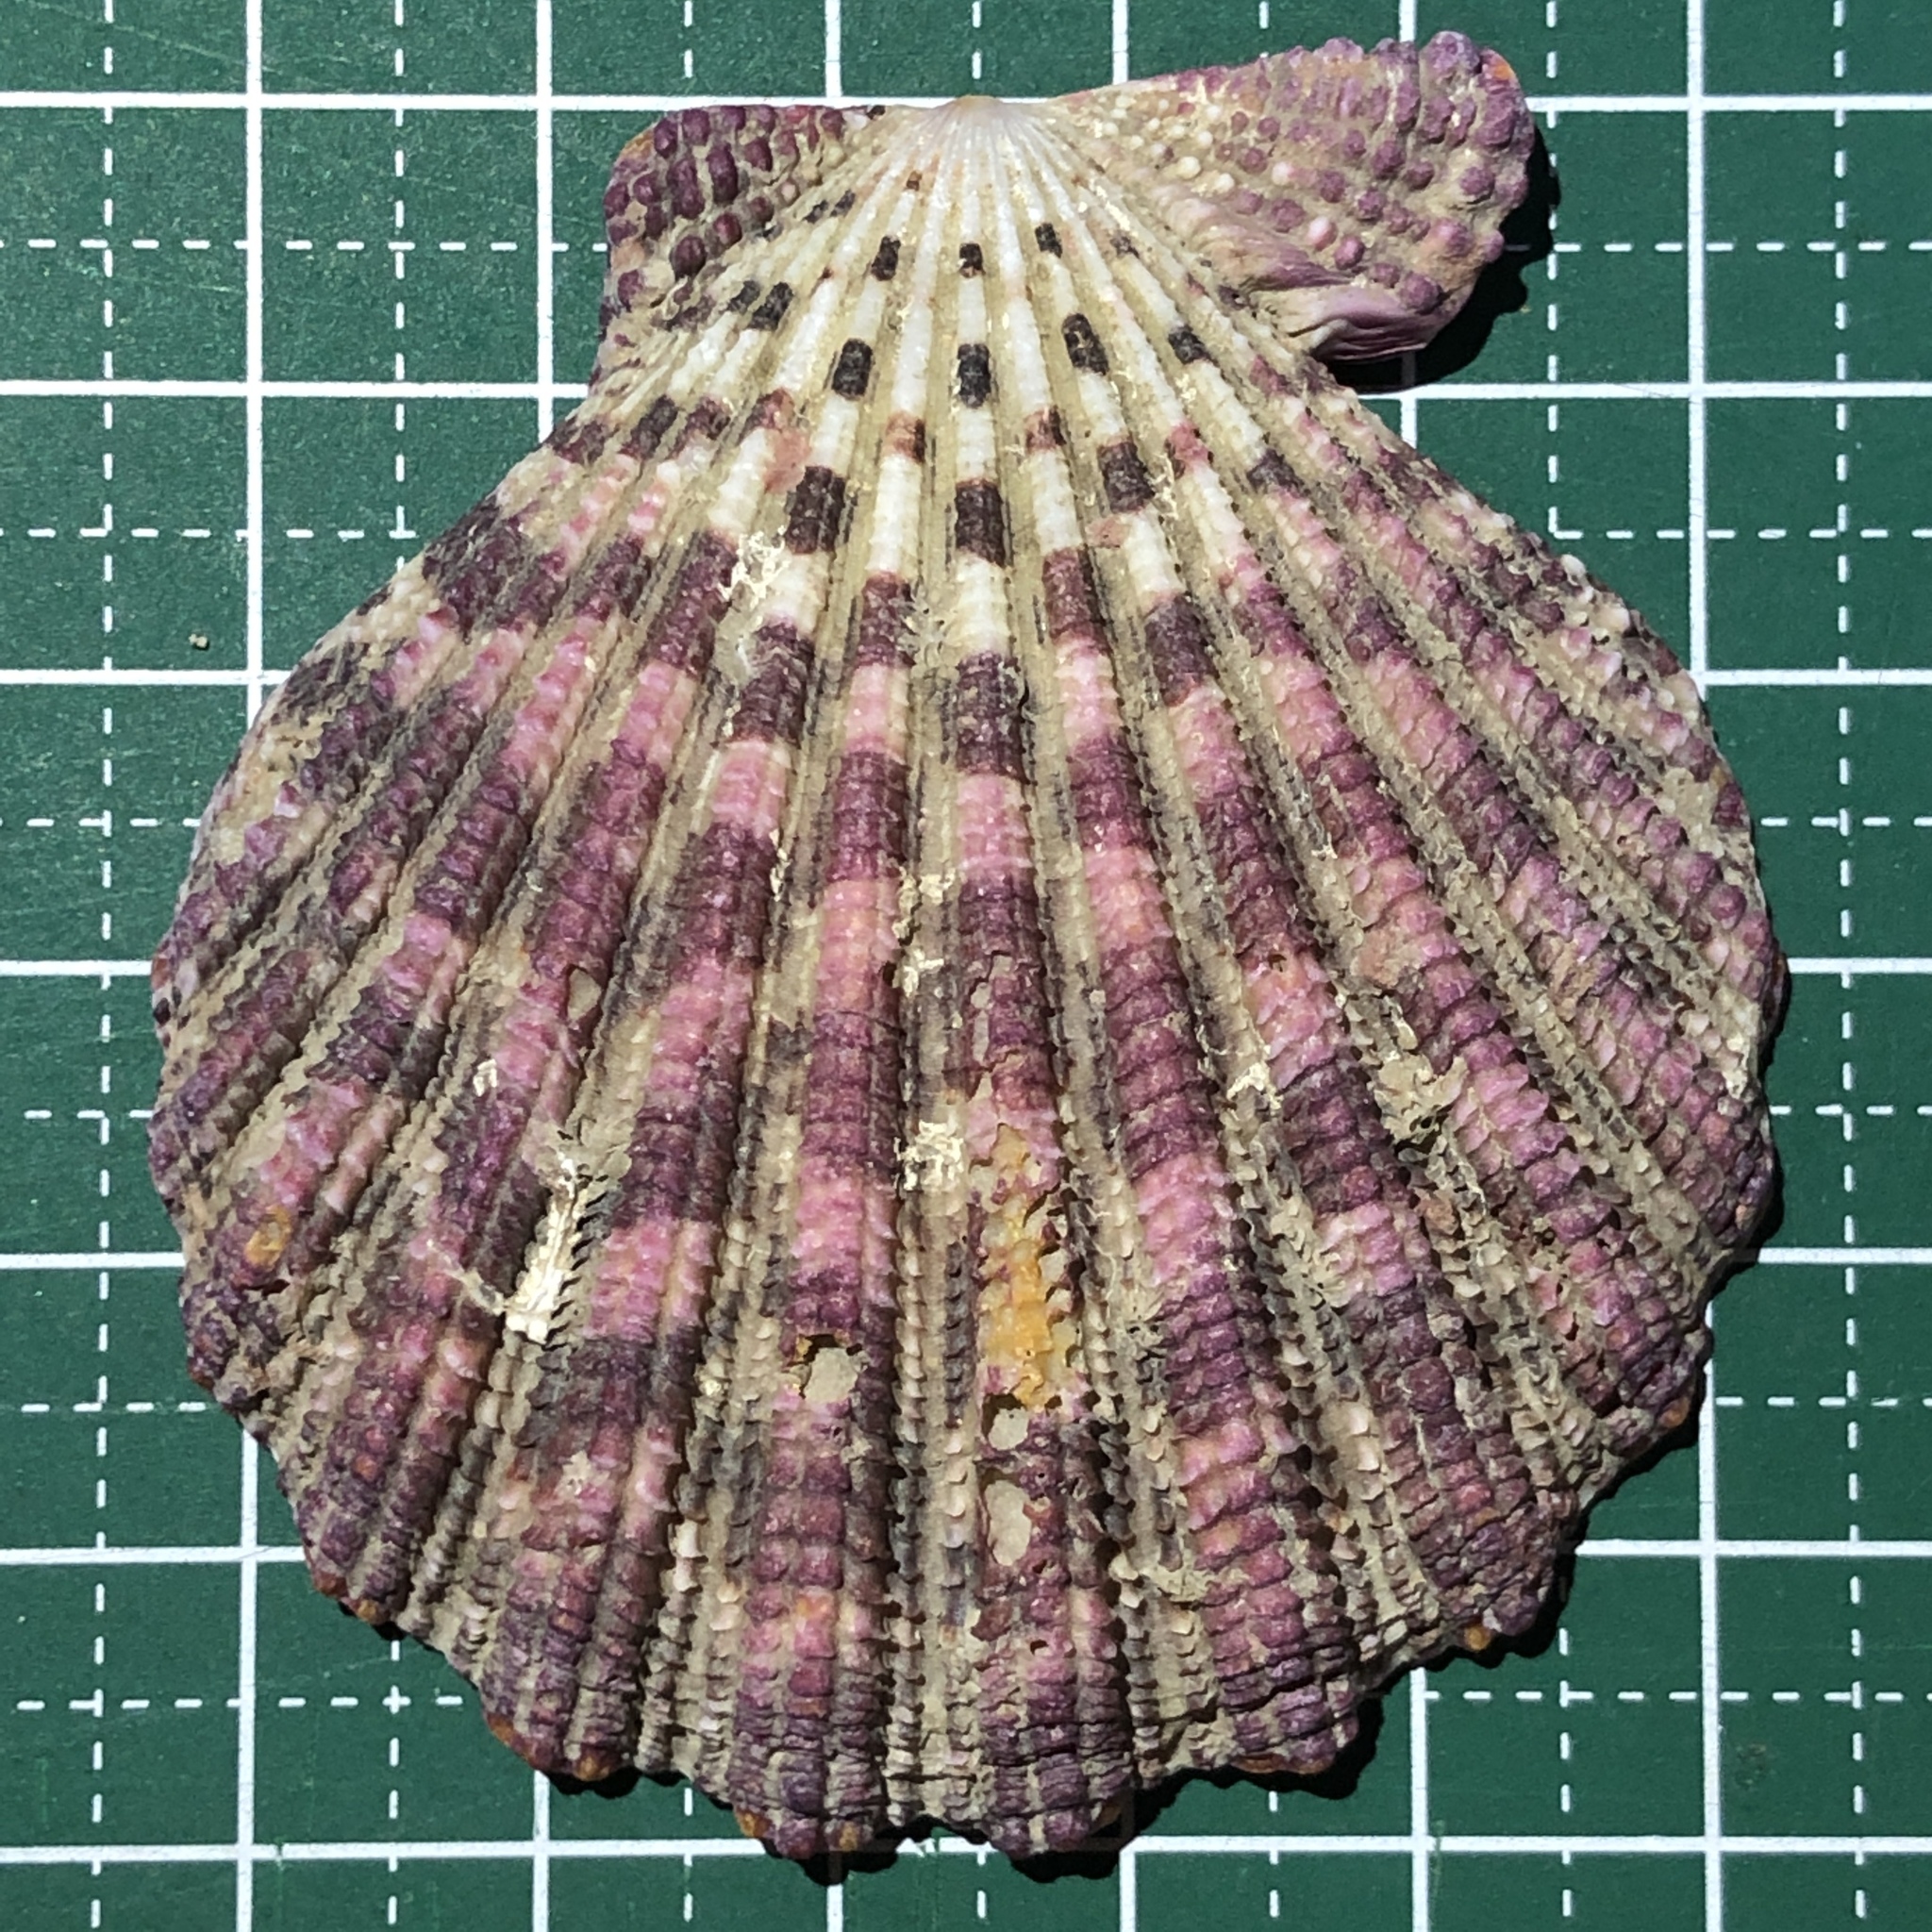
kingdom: Animalia
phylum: Mollusca
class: Bivalvia
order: Pectinida
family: Pectinidae
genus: Gloripallium
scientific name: Gloripallium pallium
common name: Royal cloak scallop
